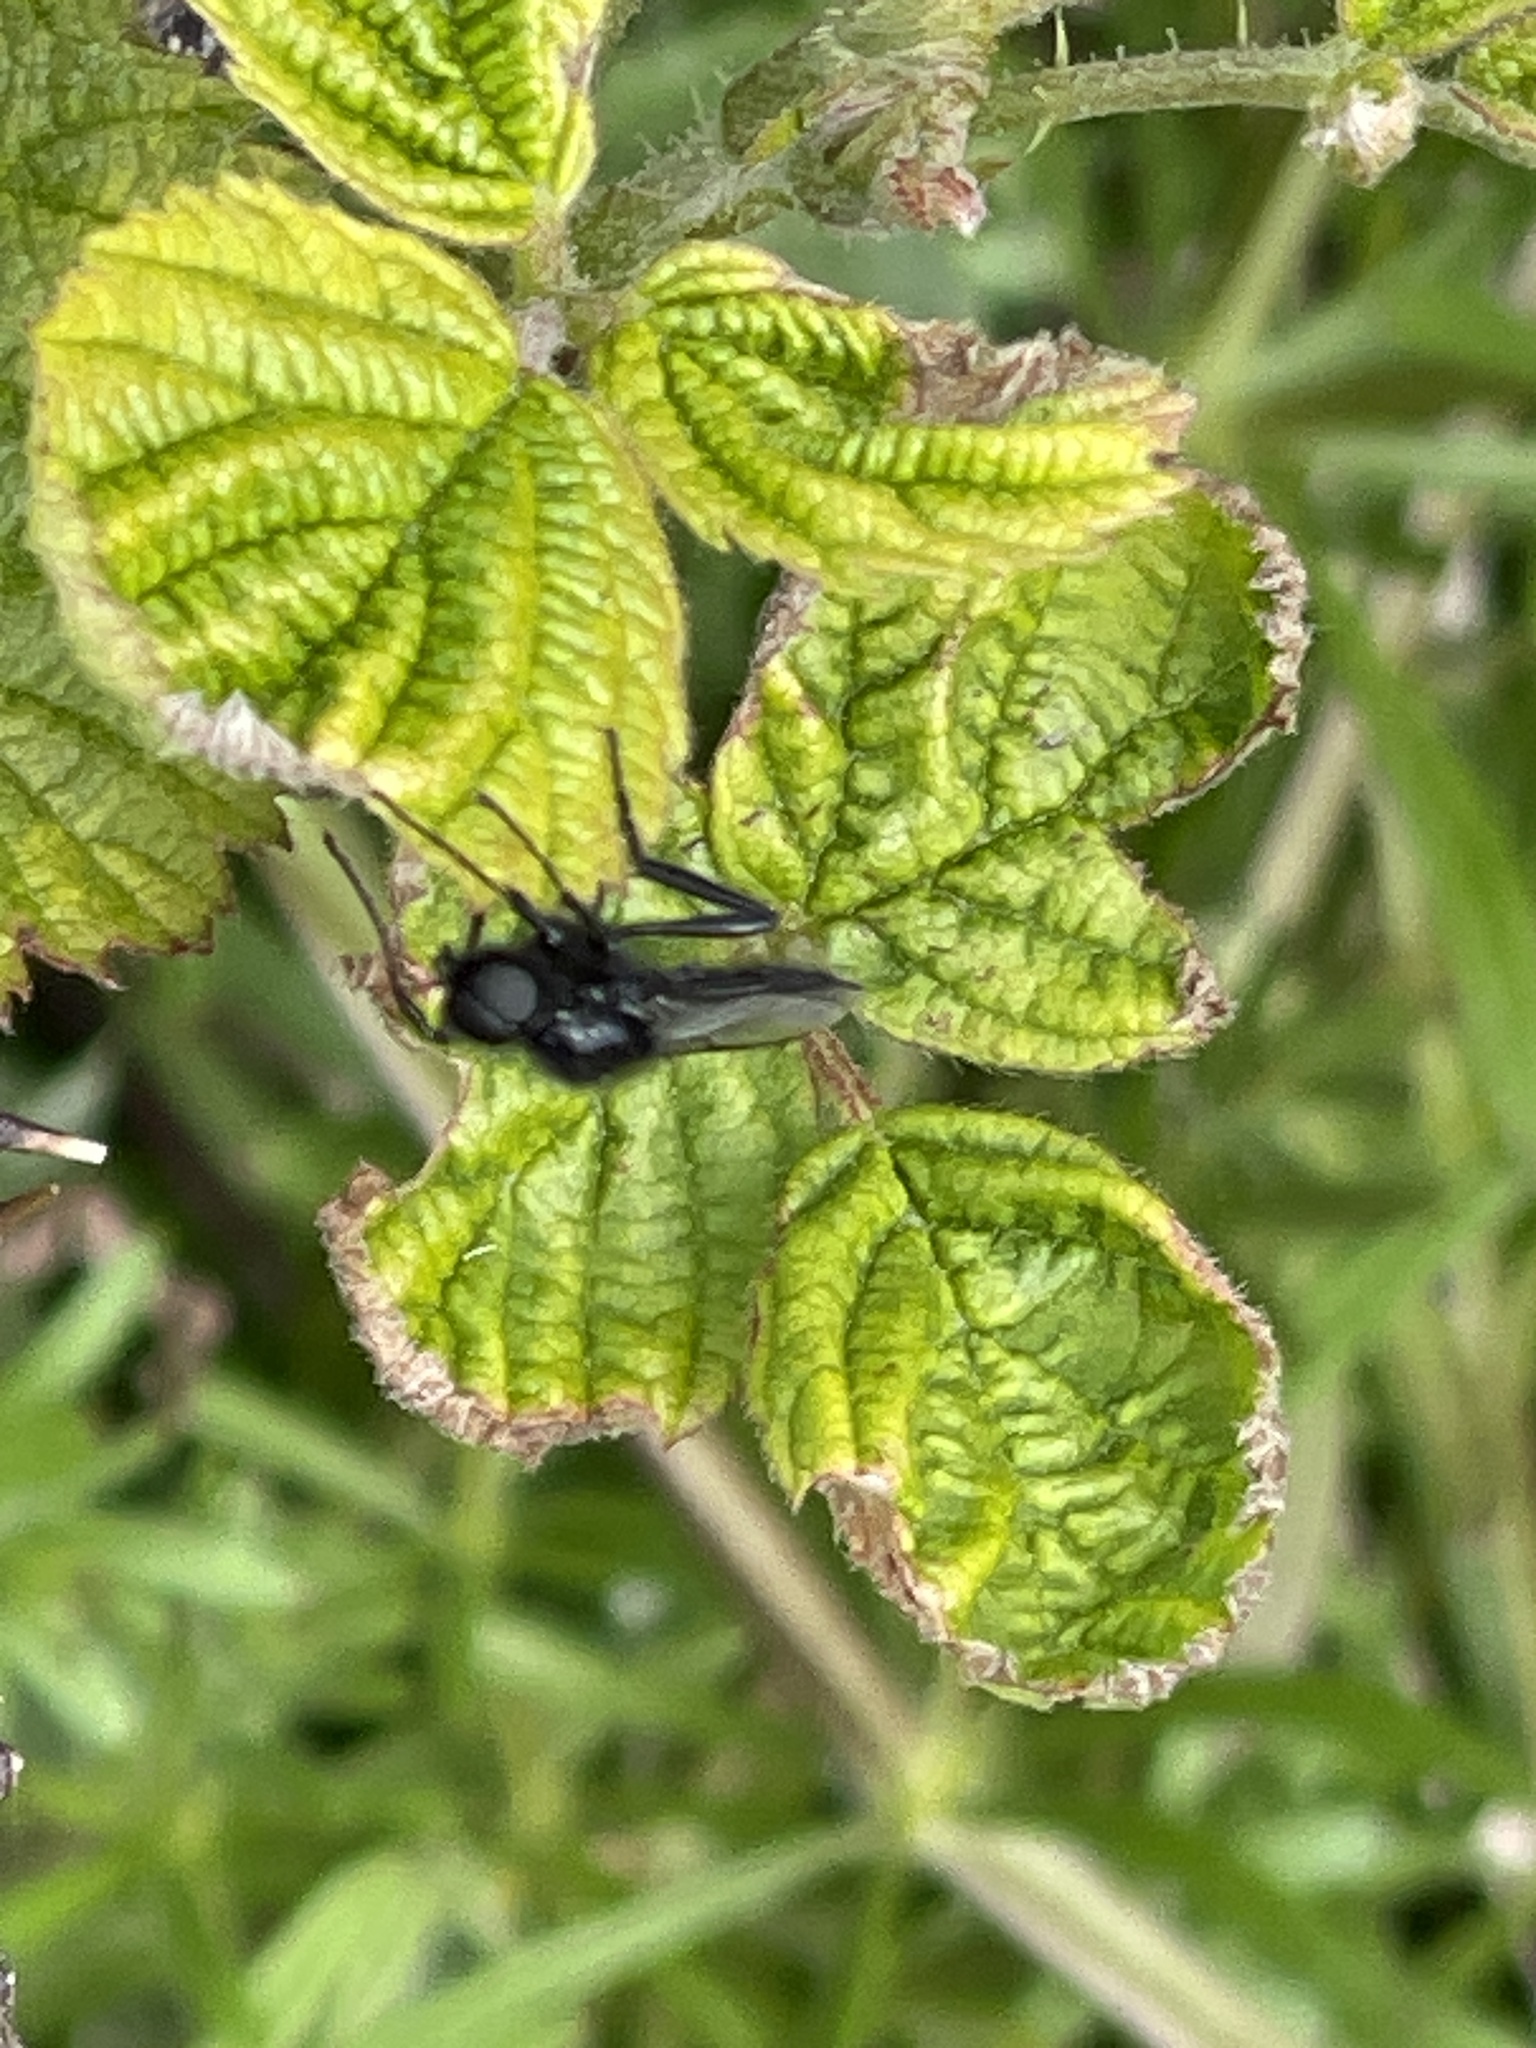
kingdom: Animalia
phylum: Arthropoda
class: Insecta
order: Diptera
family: Bibionidae
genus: Bibio
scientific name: Bibio marci
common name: St marks fly
